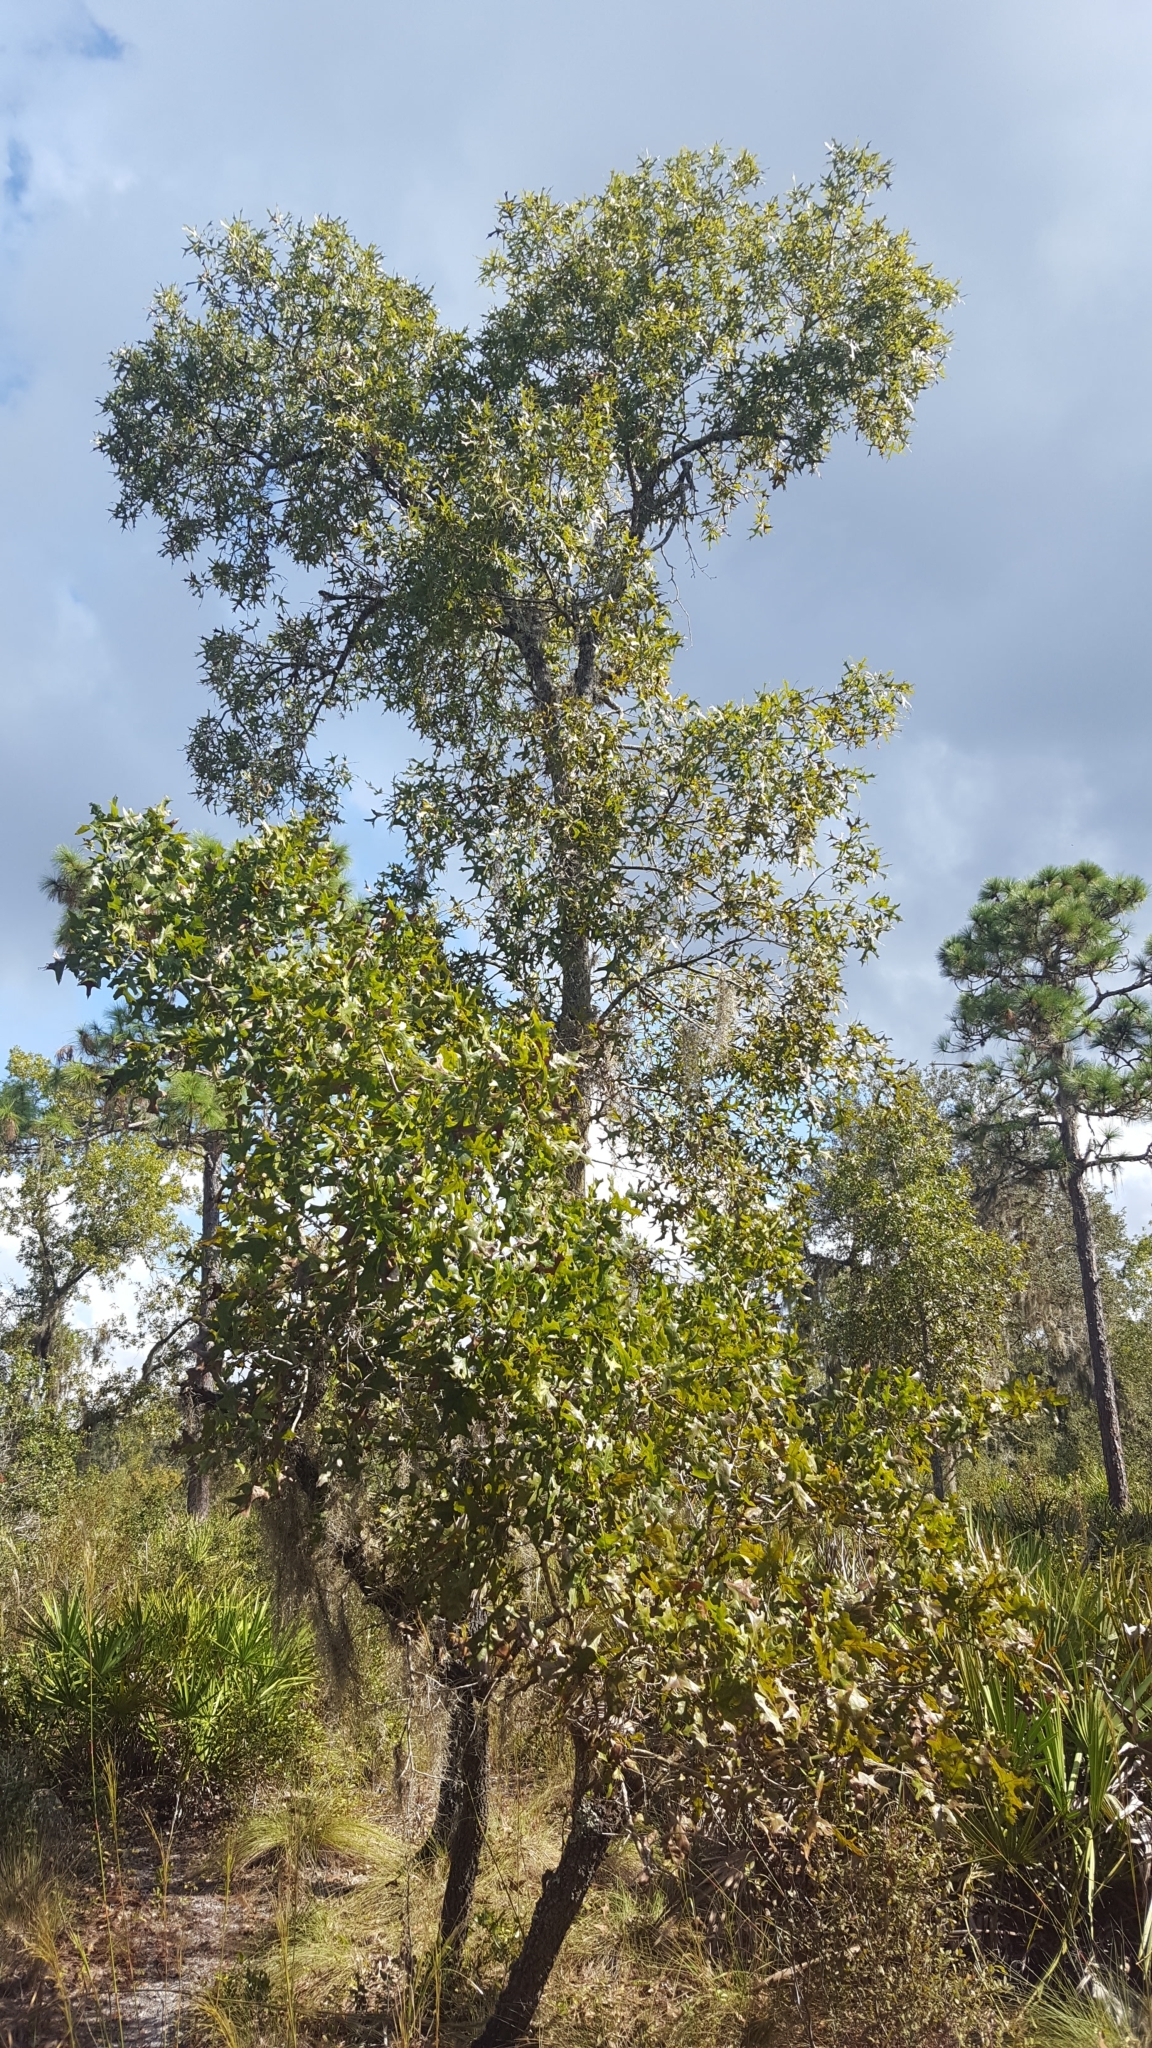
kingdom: Plantae
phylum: Tracheophyta
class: Magnoliopsida
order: Fagales
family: Fagaceae
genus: Quercus
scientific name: Quercus laevis
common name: Turkey oak
